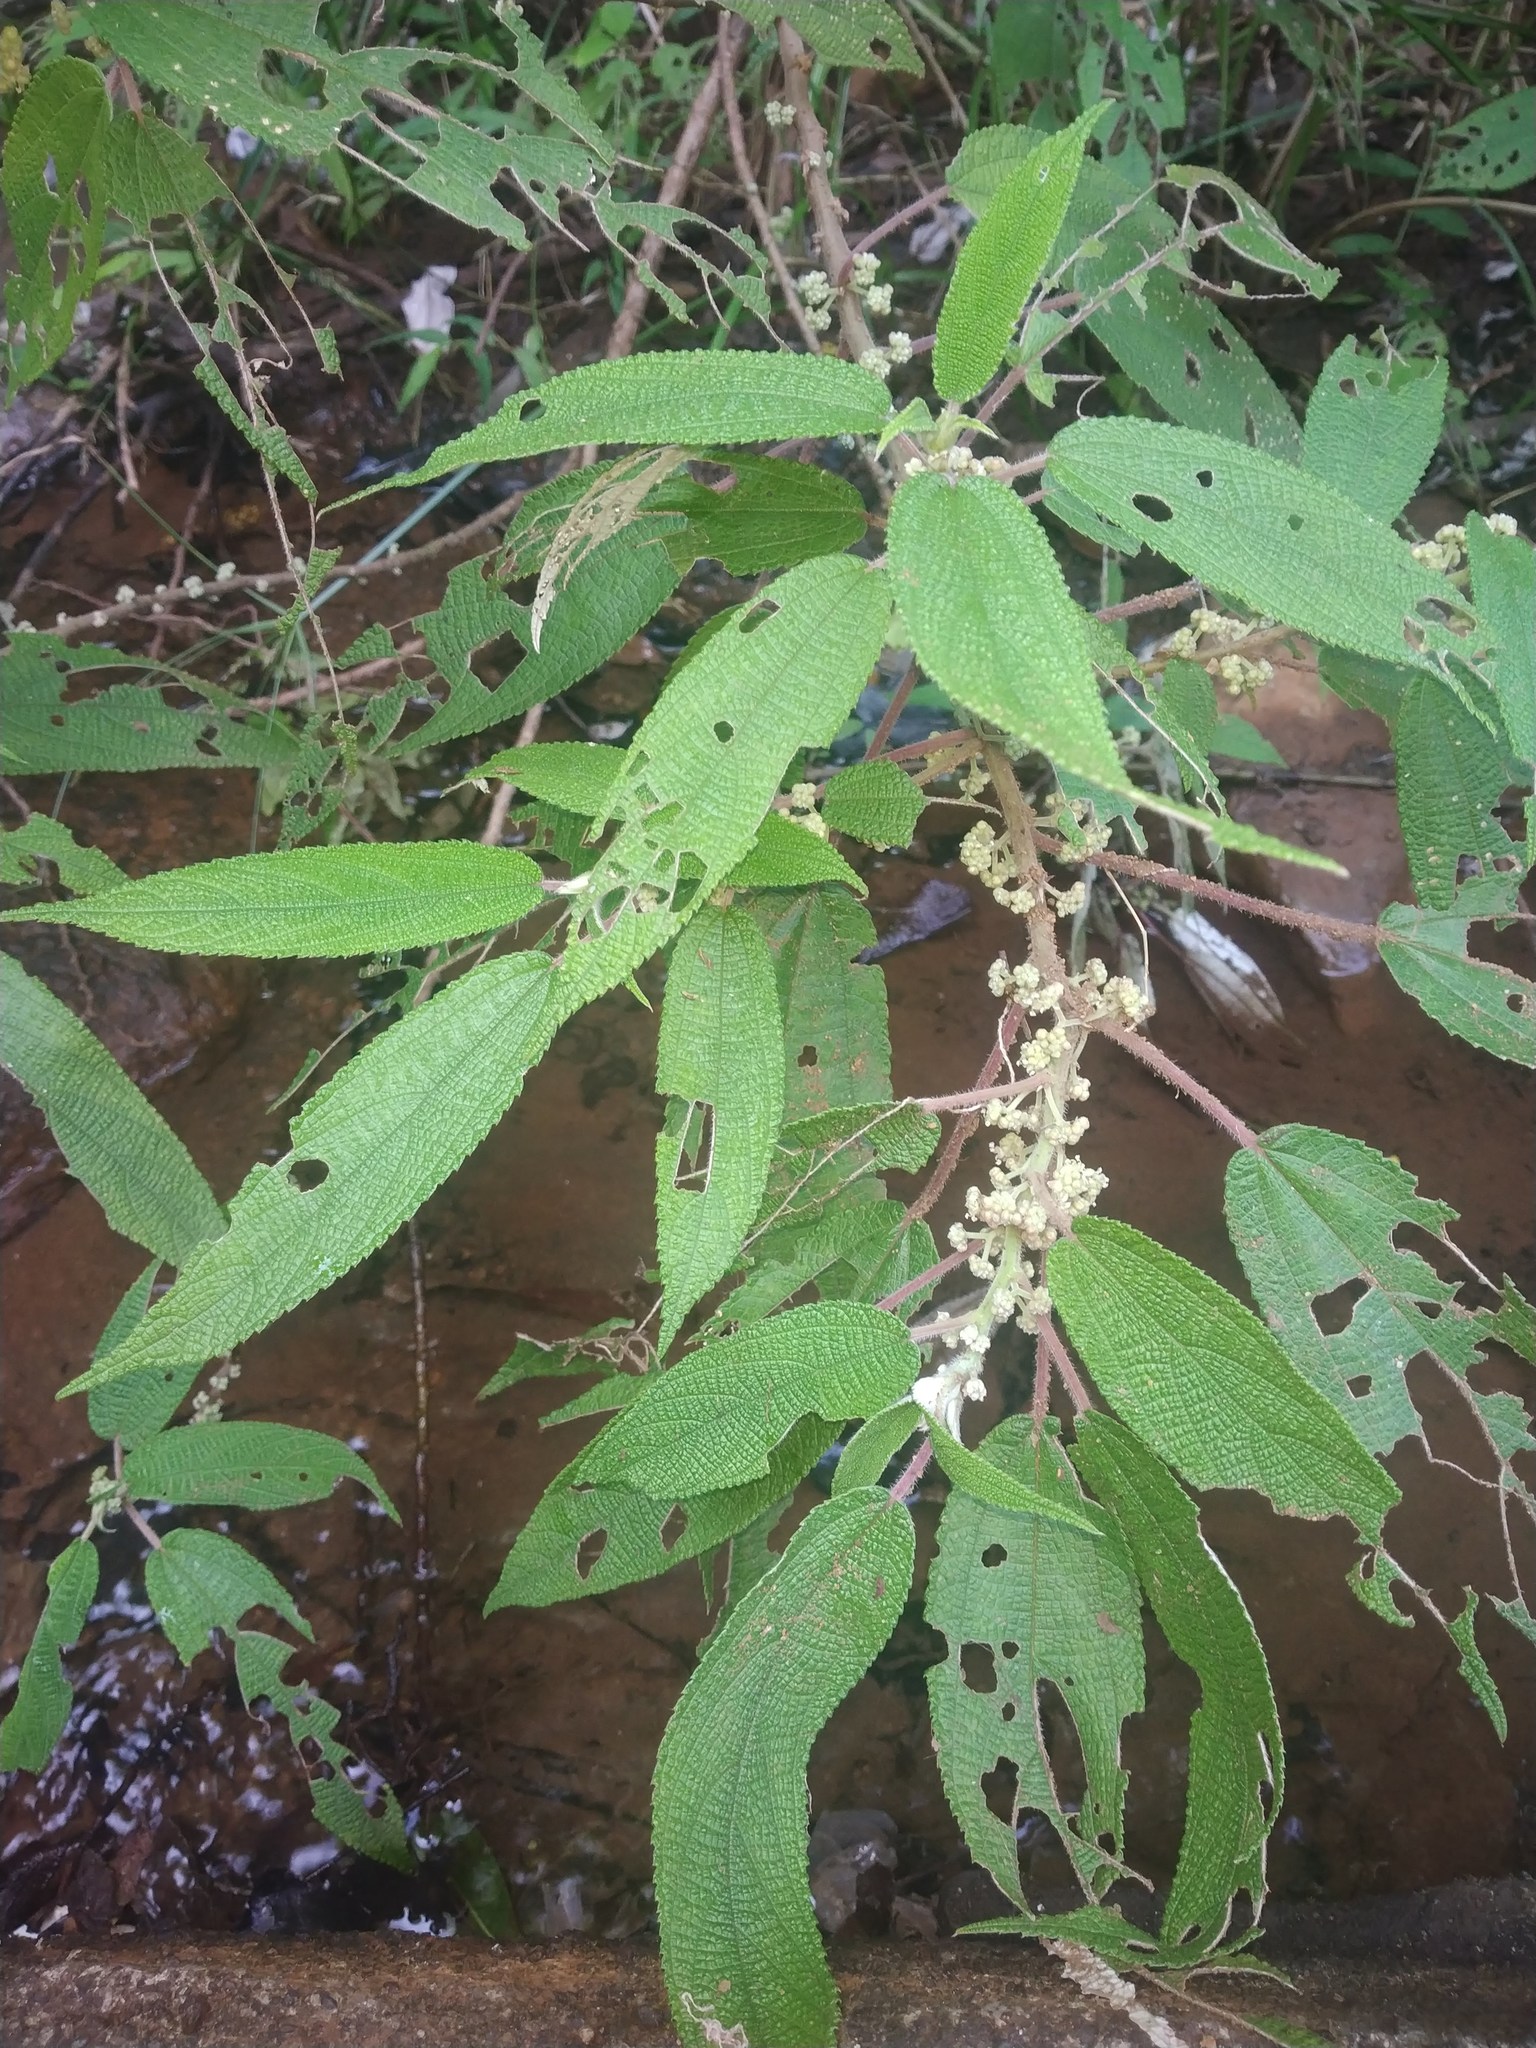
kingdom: Plantae
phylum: Tracheophyta
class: Magnoliopsida
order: Rosales
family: Urticaceae
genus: Debregeasia
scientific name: Debregeasia longifolia
